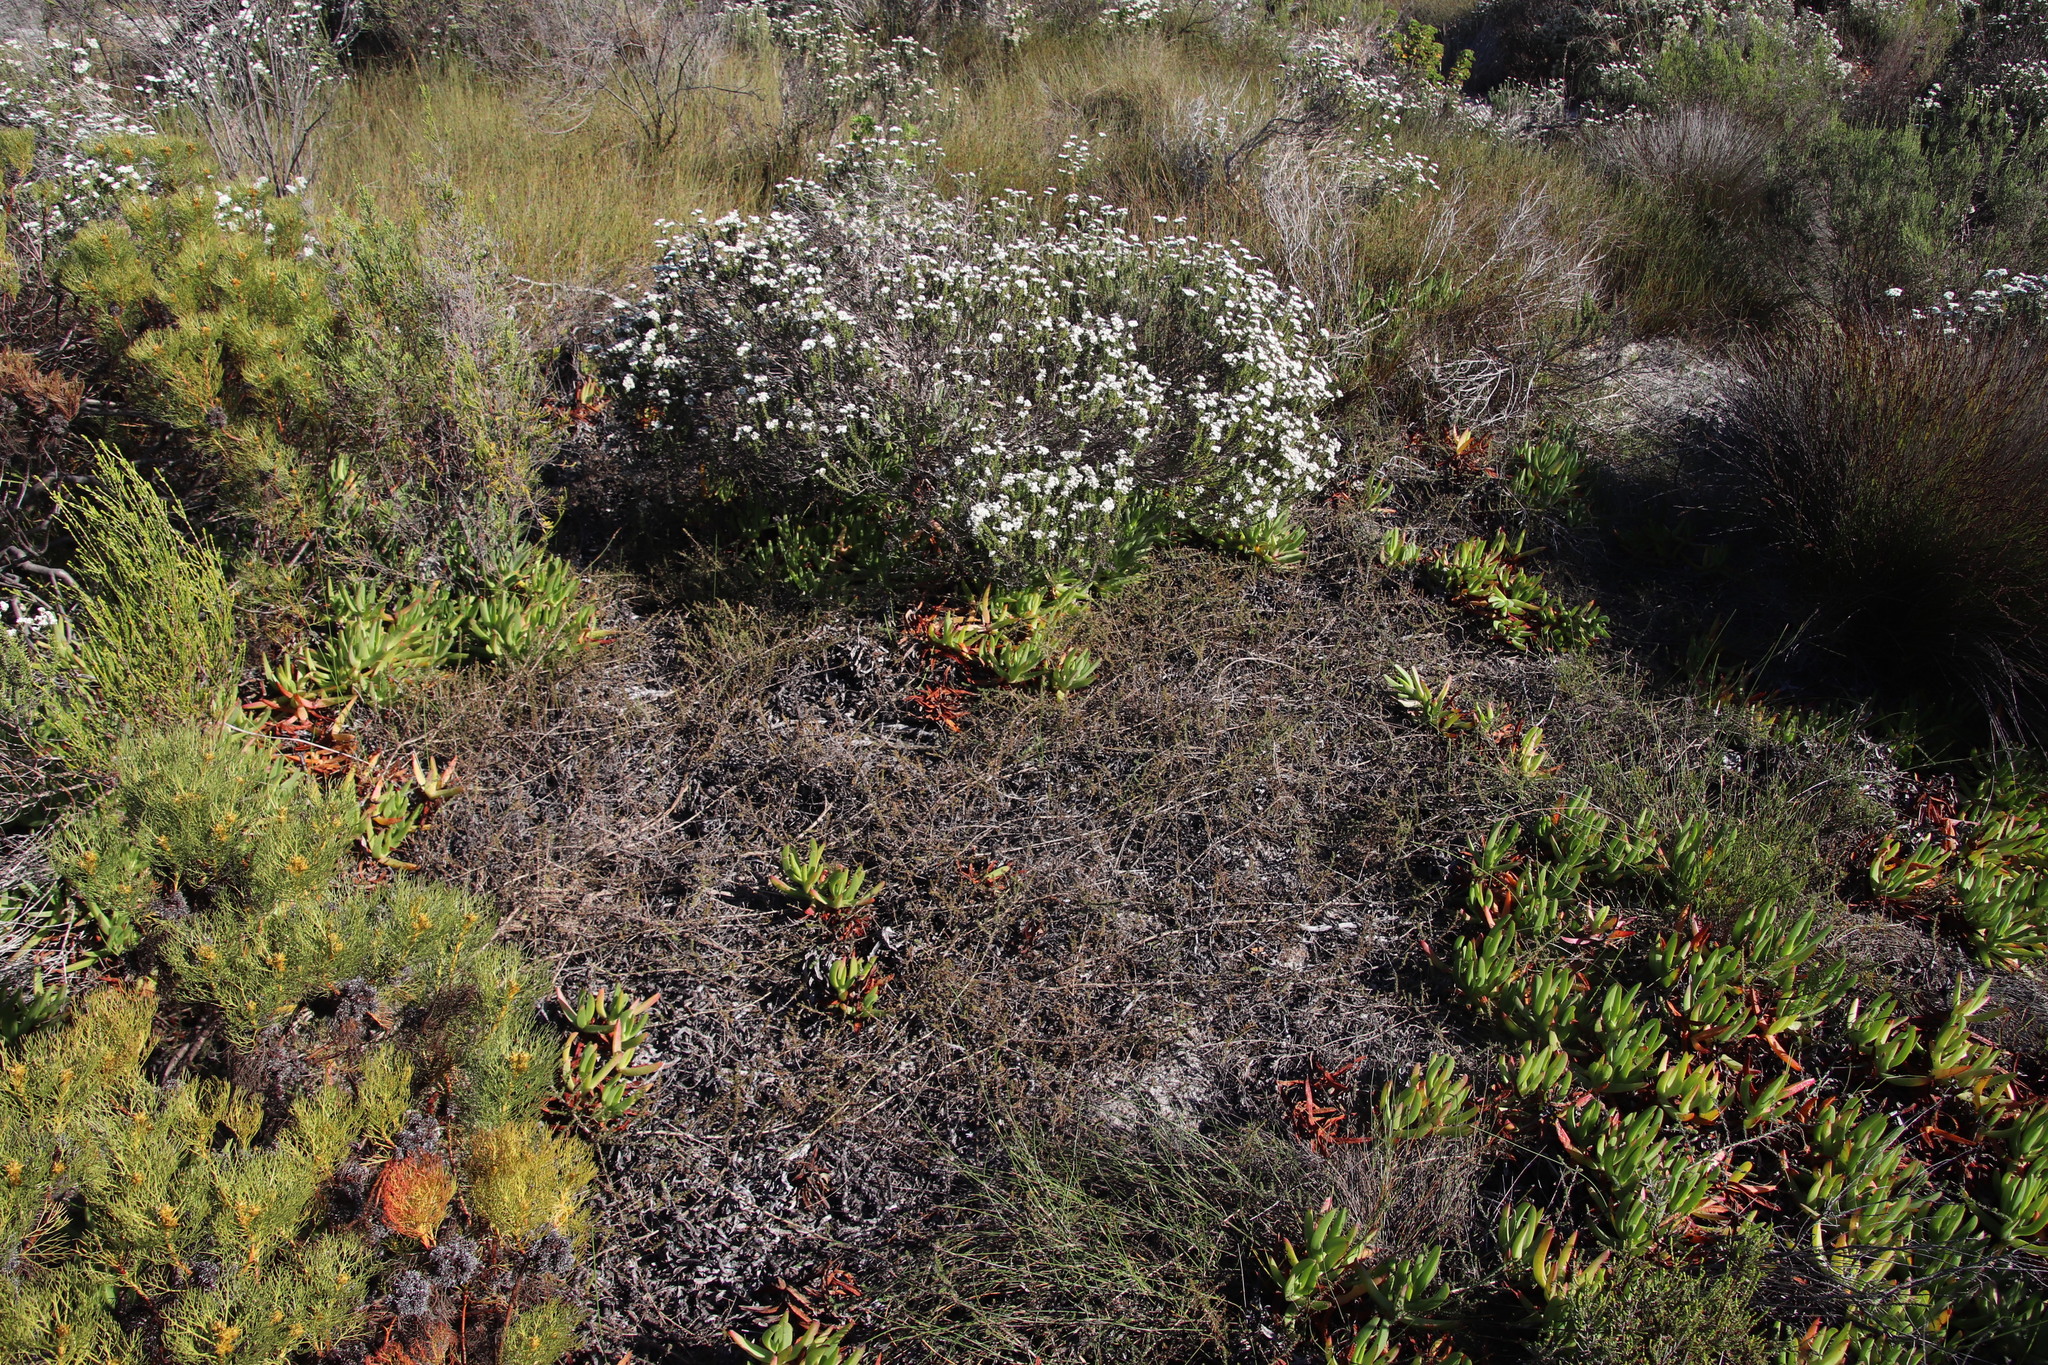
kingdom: Plantae
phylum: Tracheophyta
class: Magnoliopsida
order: Fabales
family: Fabaceae
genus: Aspalathus
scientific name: Aspalathus retroflexa
